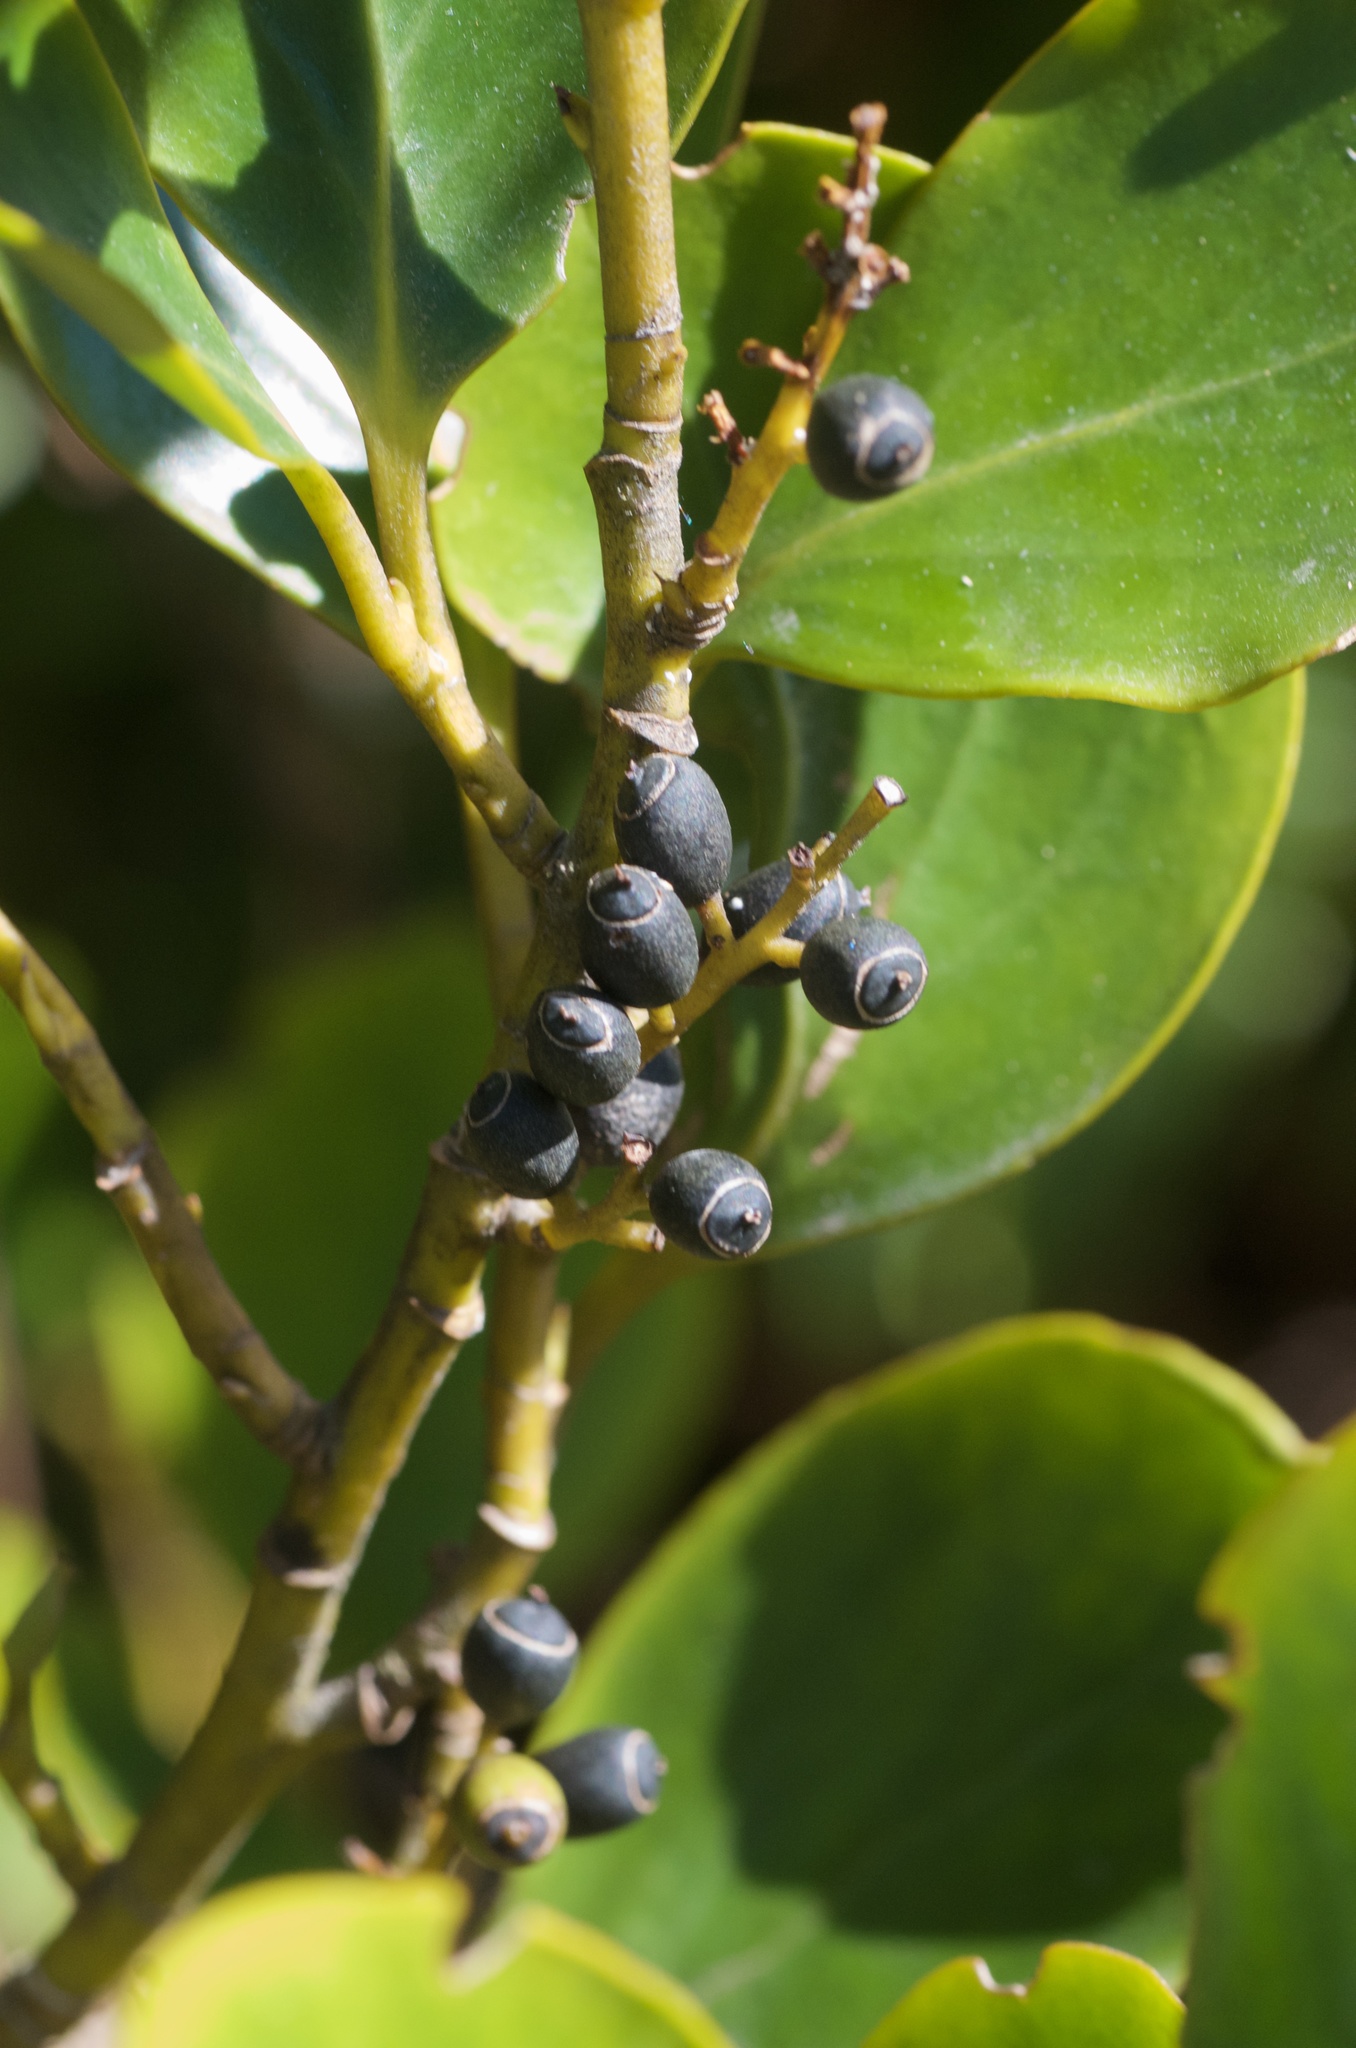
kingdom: Plantae
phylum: Tracheophyta
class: Magnoliopsida
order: Apiales
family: Griseliniaceae
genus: Griselinia
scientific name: Griselinia littoralis
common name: New zealand broadleaf
